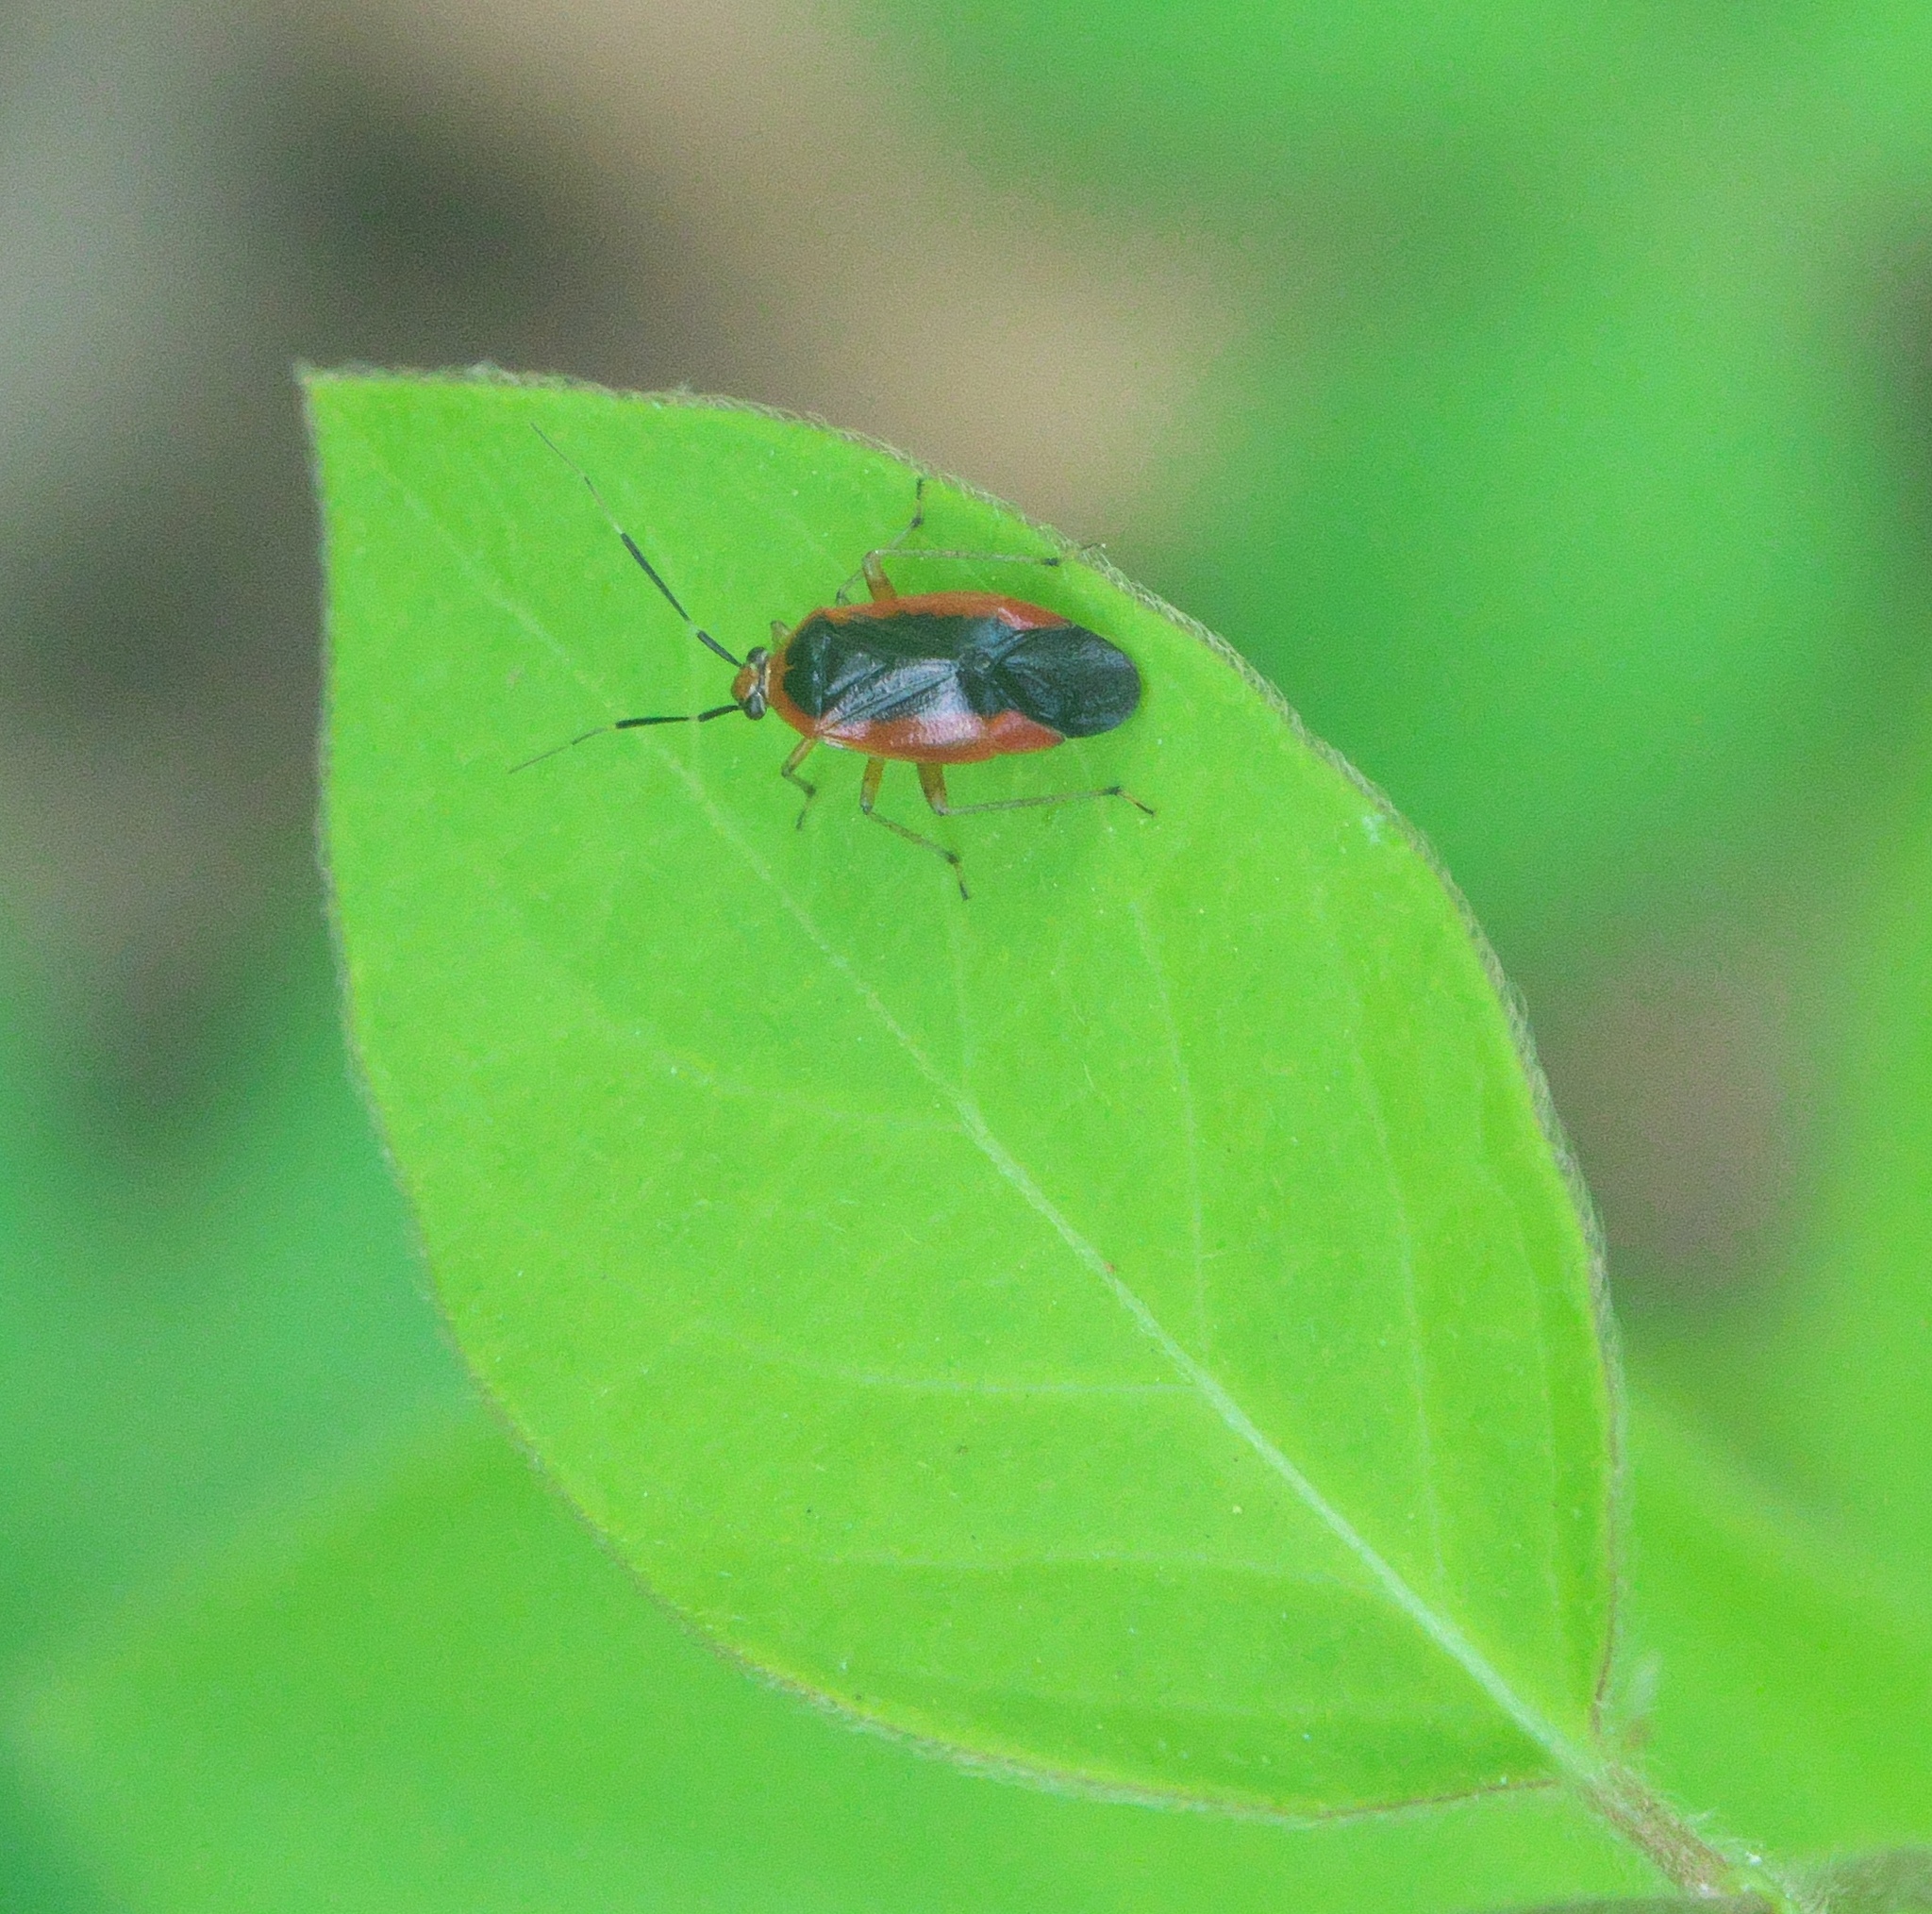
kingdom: Animalia
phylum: Arthropoda
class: Insecta
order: Hemiptera
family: Miridae
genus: Metriorrhynchomiris
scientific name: Metriorrhynchomiris dislocatus
